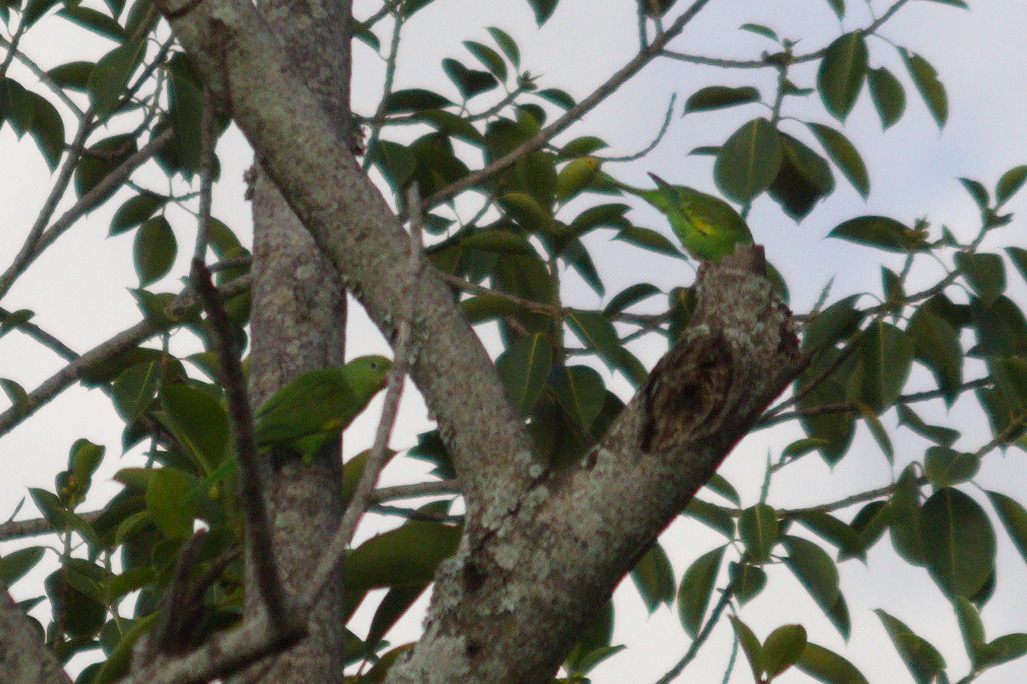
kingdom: Animalia
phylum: Chordata
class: Aves
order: Psittaciformes
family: Psittacidae
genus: Brotogeris
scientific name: Brotogeris chiriri
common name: Yellow-chevroned parakeet
